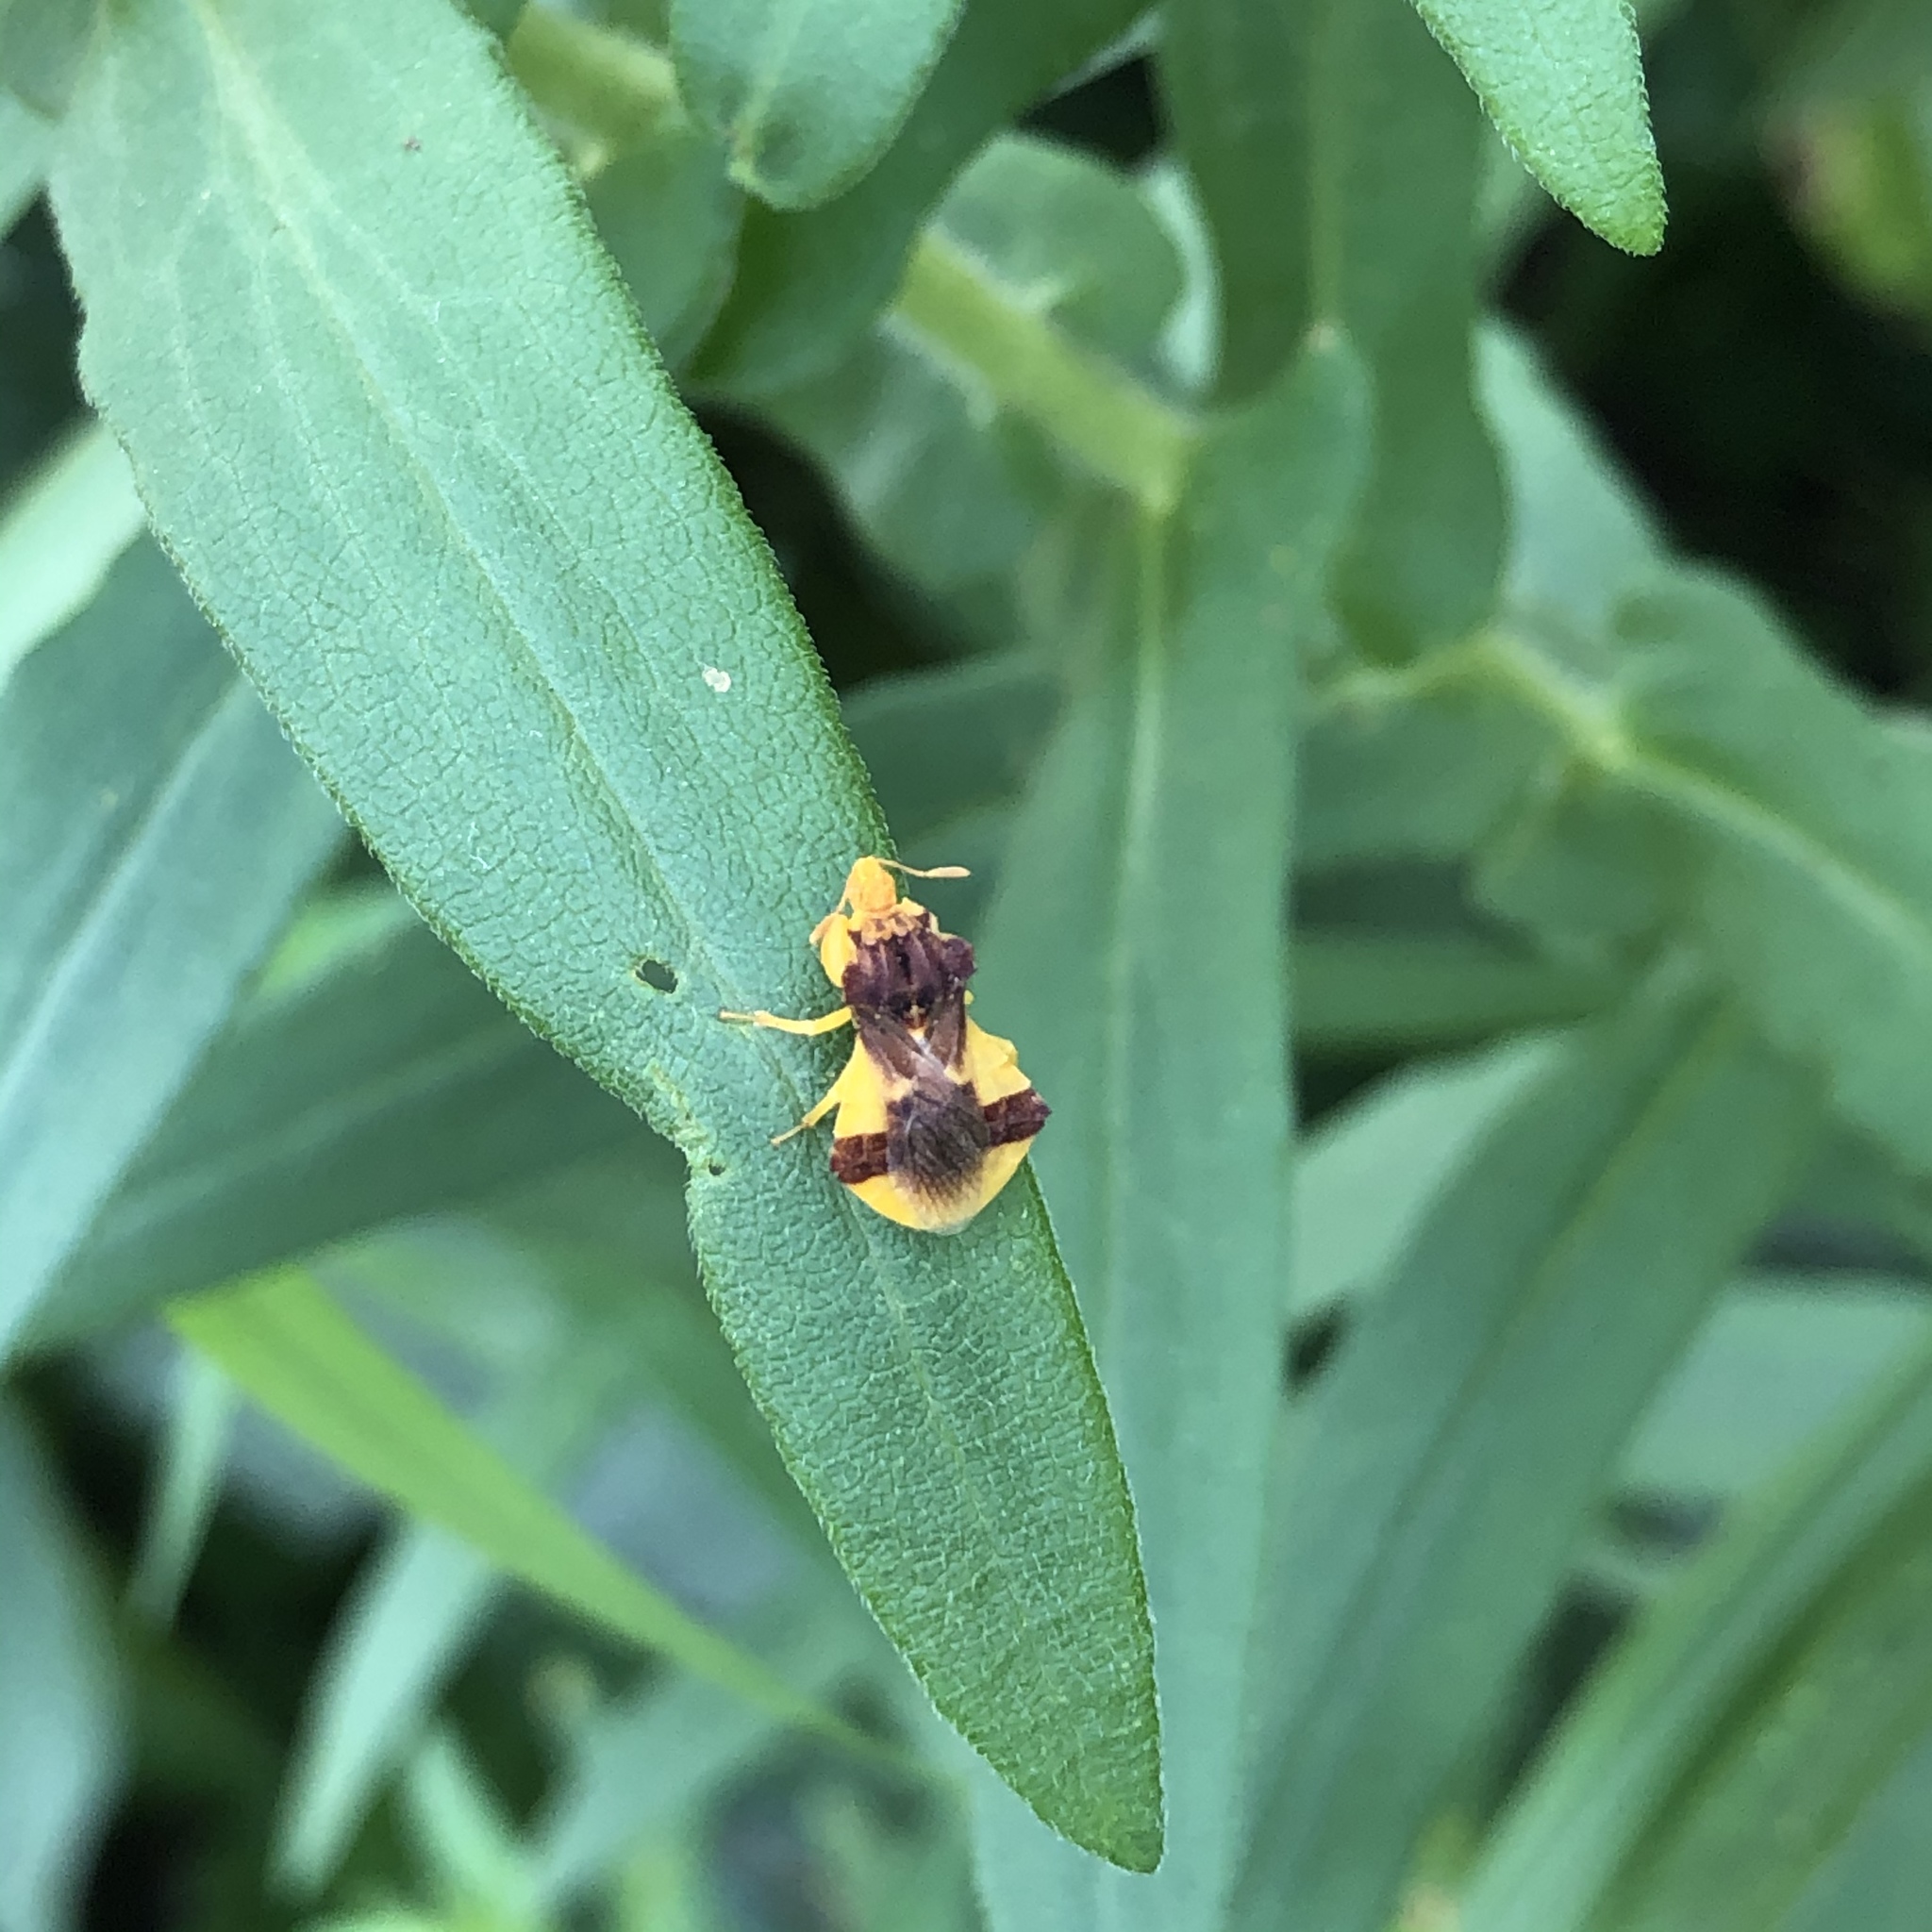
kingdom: Animalia
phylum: Arthropoda
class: Insecta
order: Hemiptera
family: Reduviidae
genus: Phymata
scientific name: Phymata americana
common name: Jagged ambush bug
